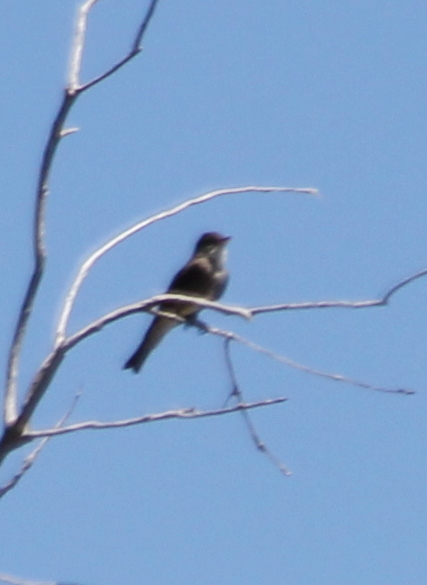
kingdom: Animalia
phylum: Chordata
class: Aves
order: Passeriformes
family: Tyrannidae
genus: Contopus
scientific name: Contopus cooperi
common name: Olive-sided flycatcher
